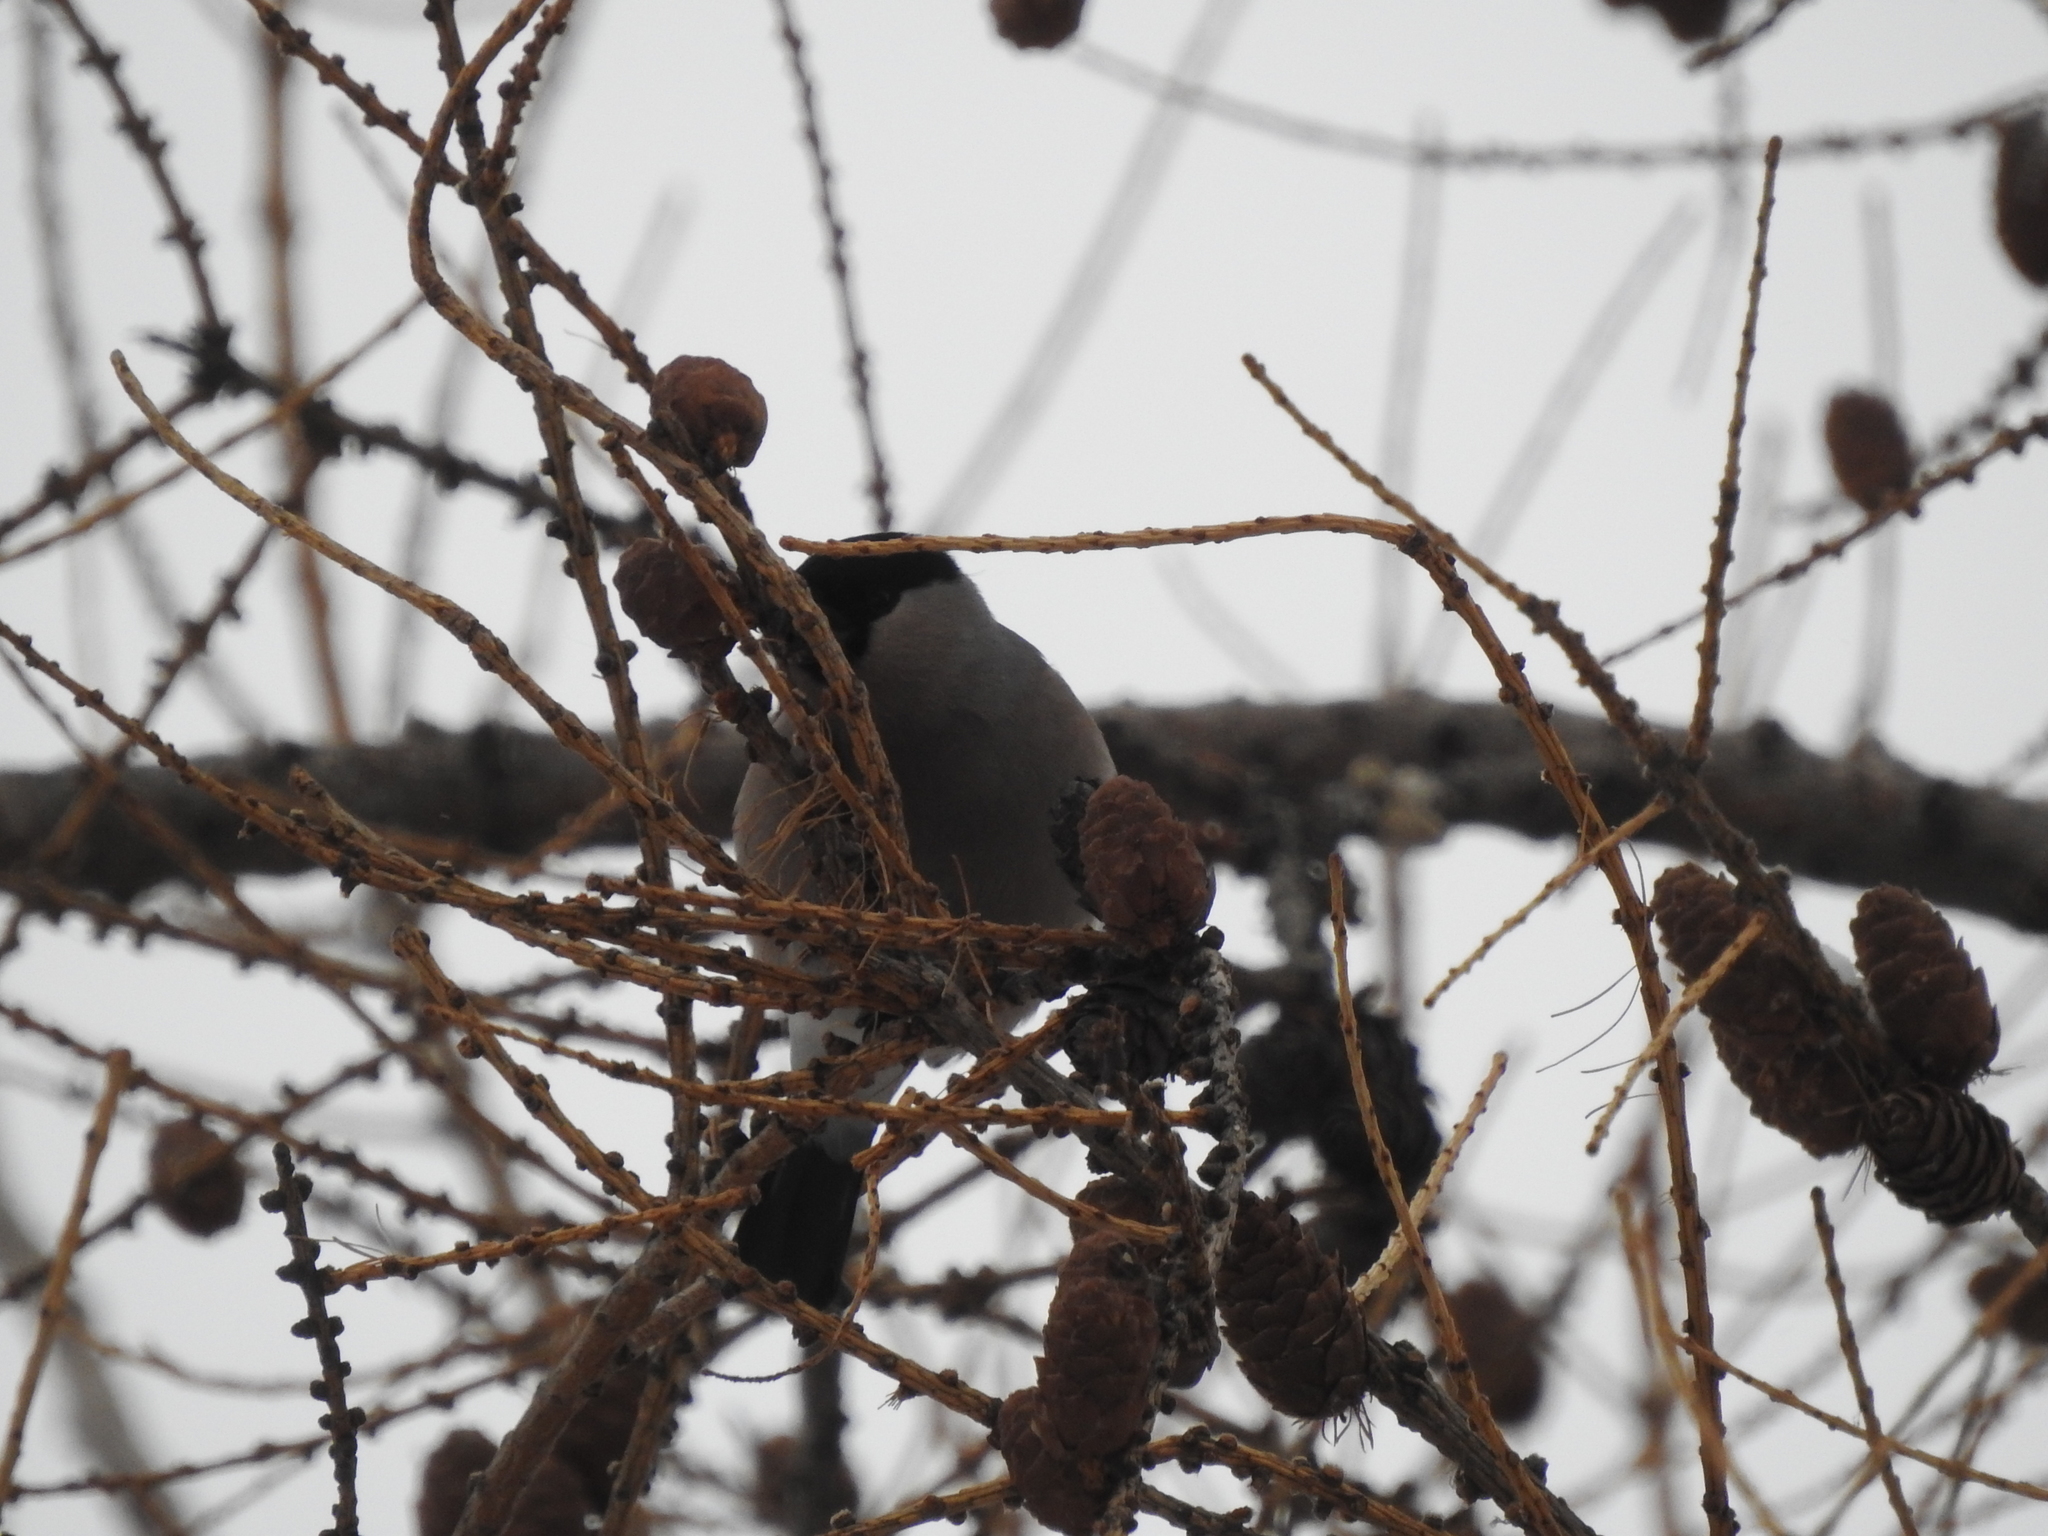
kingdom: Animalia
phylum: Chordata
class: Aves
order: Passeriformes
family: Fringillidae
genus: Pyrrhula
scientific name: Pyrrhula pyrrhula
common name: Eurasian bullfinch
